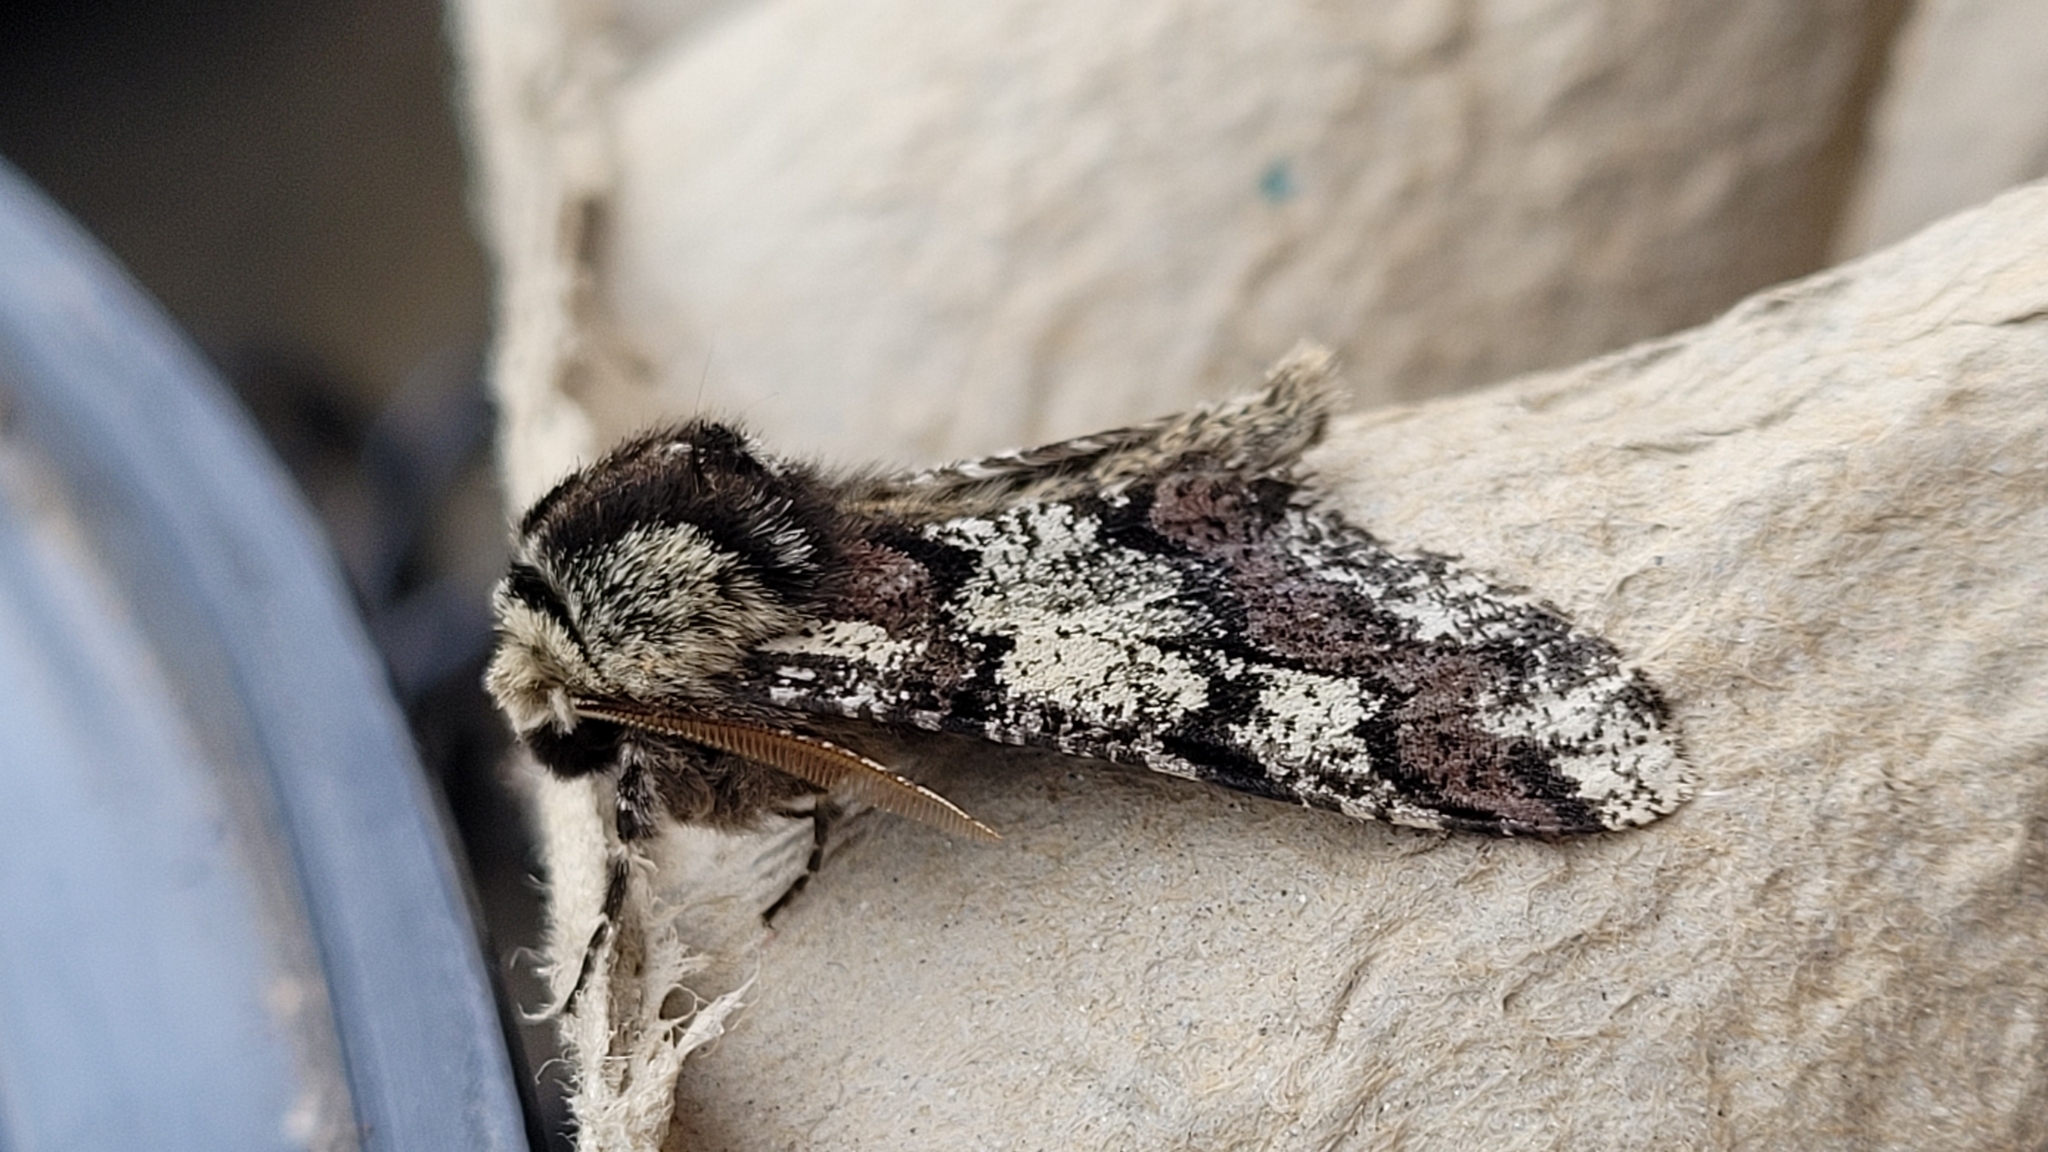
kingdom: Animalia
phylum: Arthropoda
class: Insecta
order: Lepidoptera
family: Geometridae
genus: Biston
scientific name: Biston strataria
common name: Oak beauty
